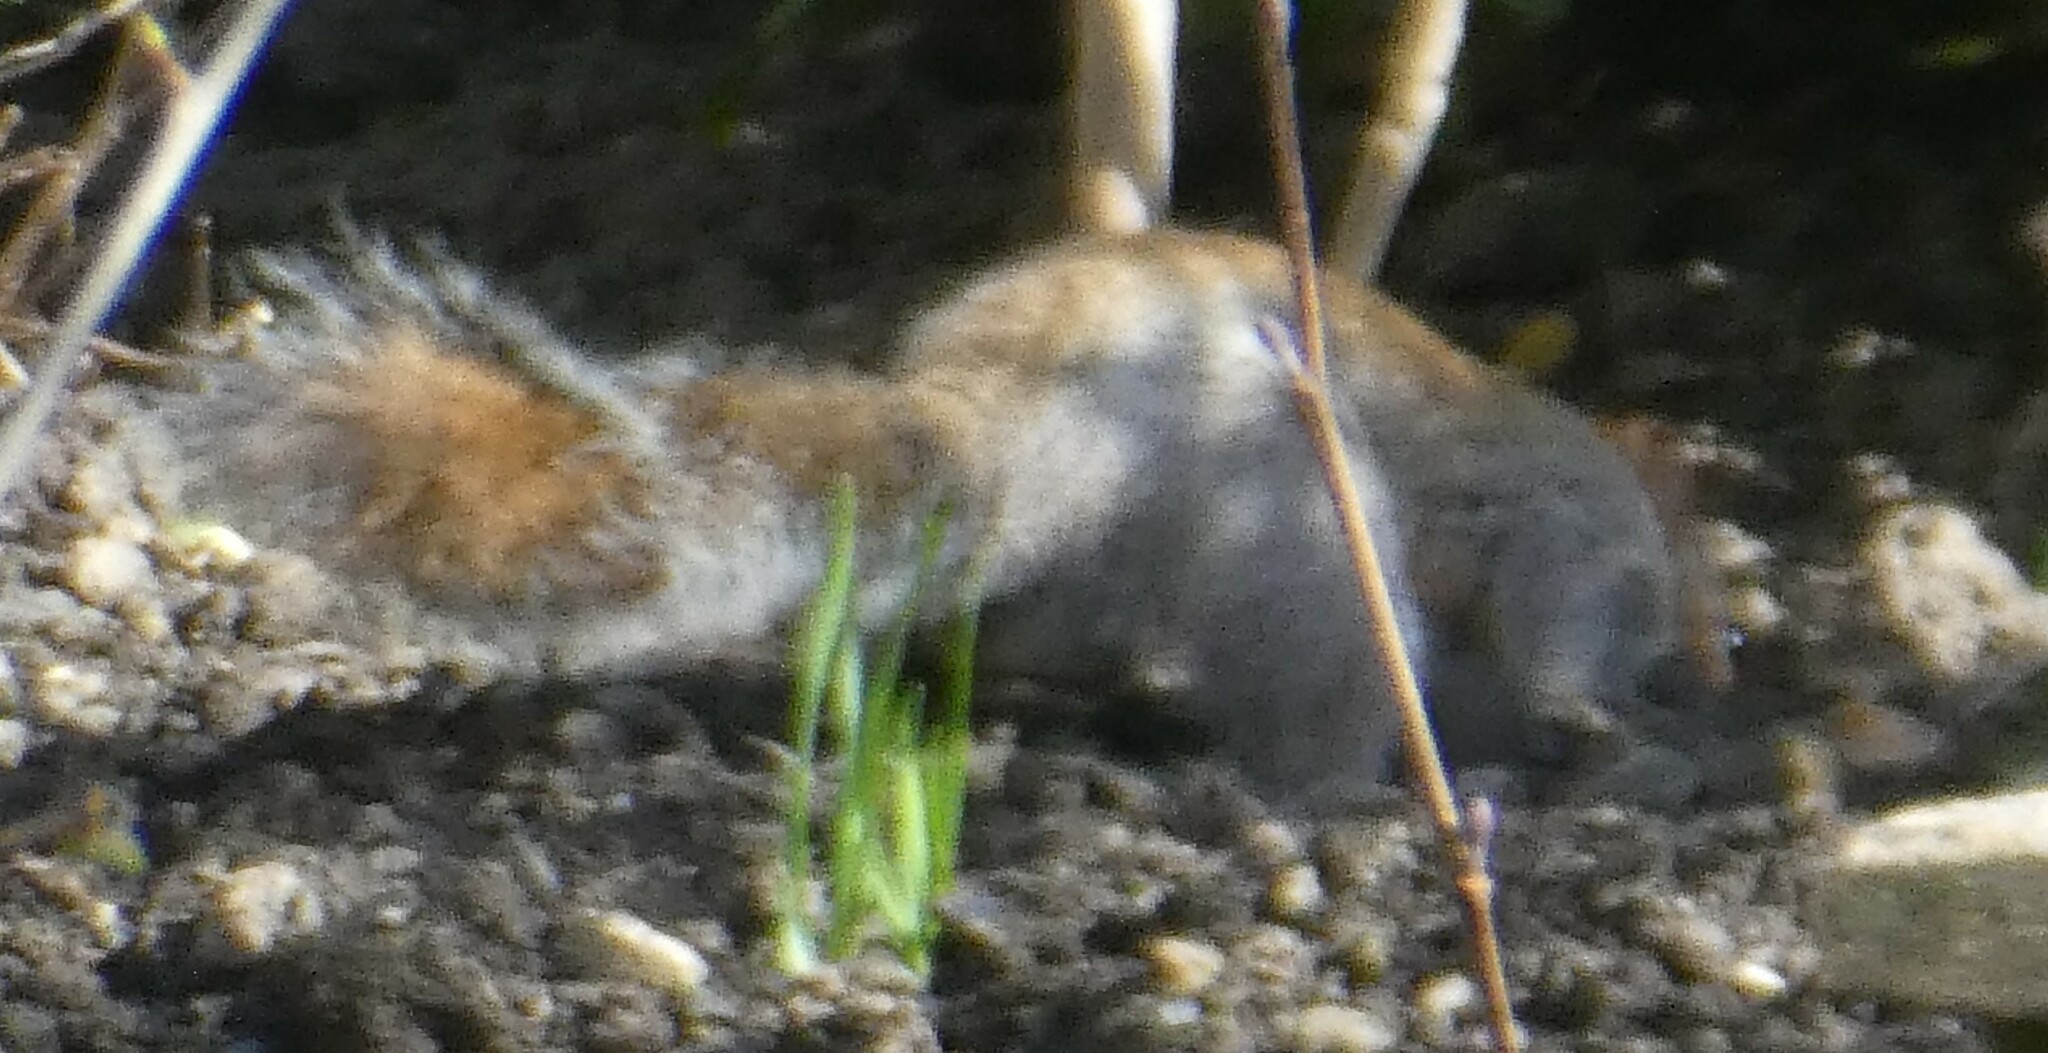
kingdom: Animalia
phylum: Chordata
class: Mammalia
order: Rodentia
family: Sciuridae
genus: Sciurus
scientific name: Sciurus carolinensis
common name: Eastern gray squirrel
